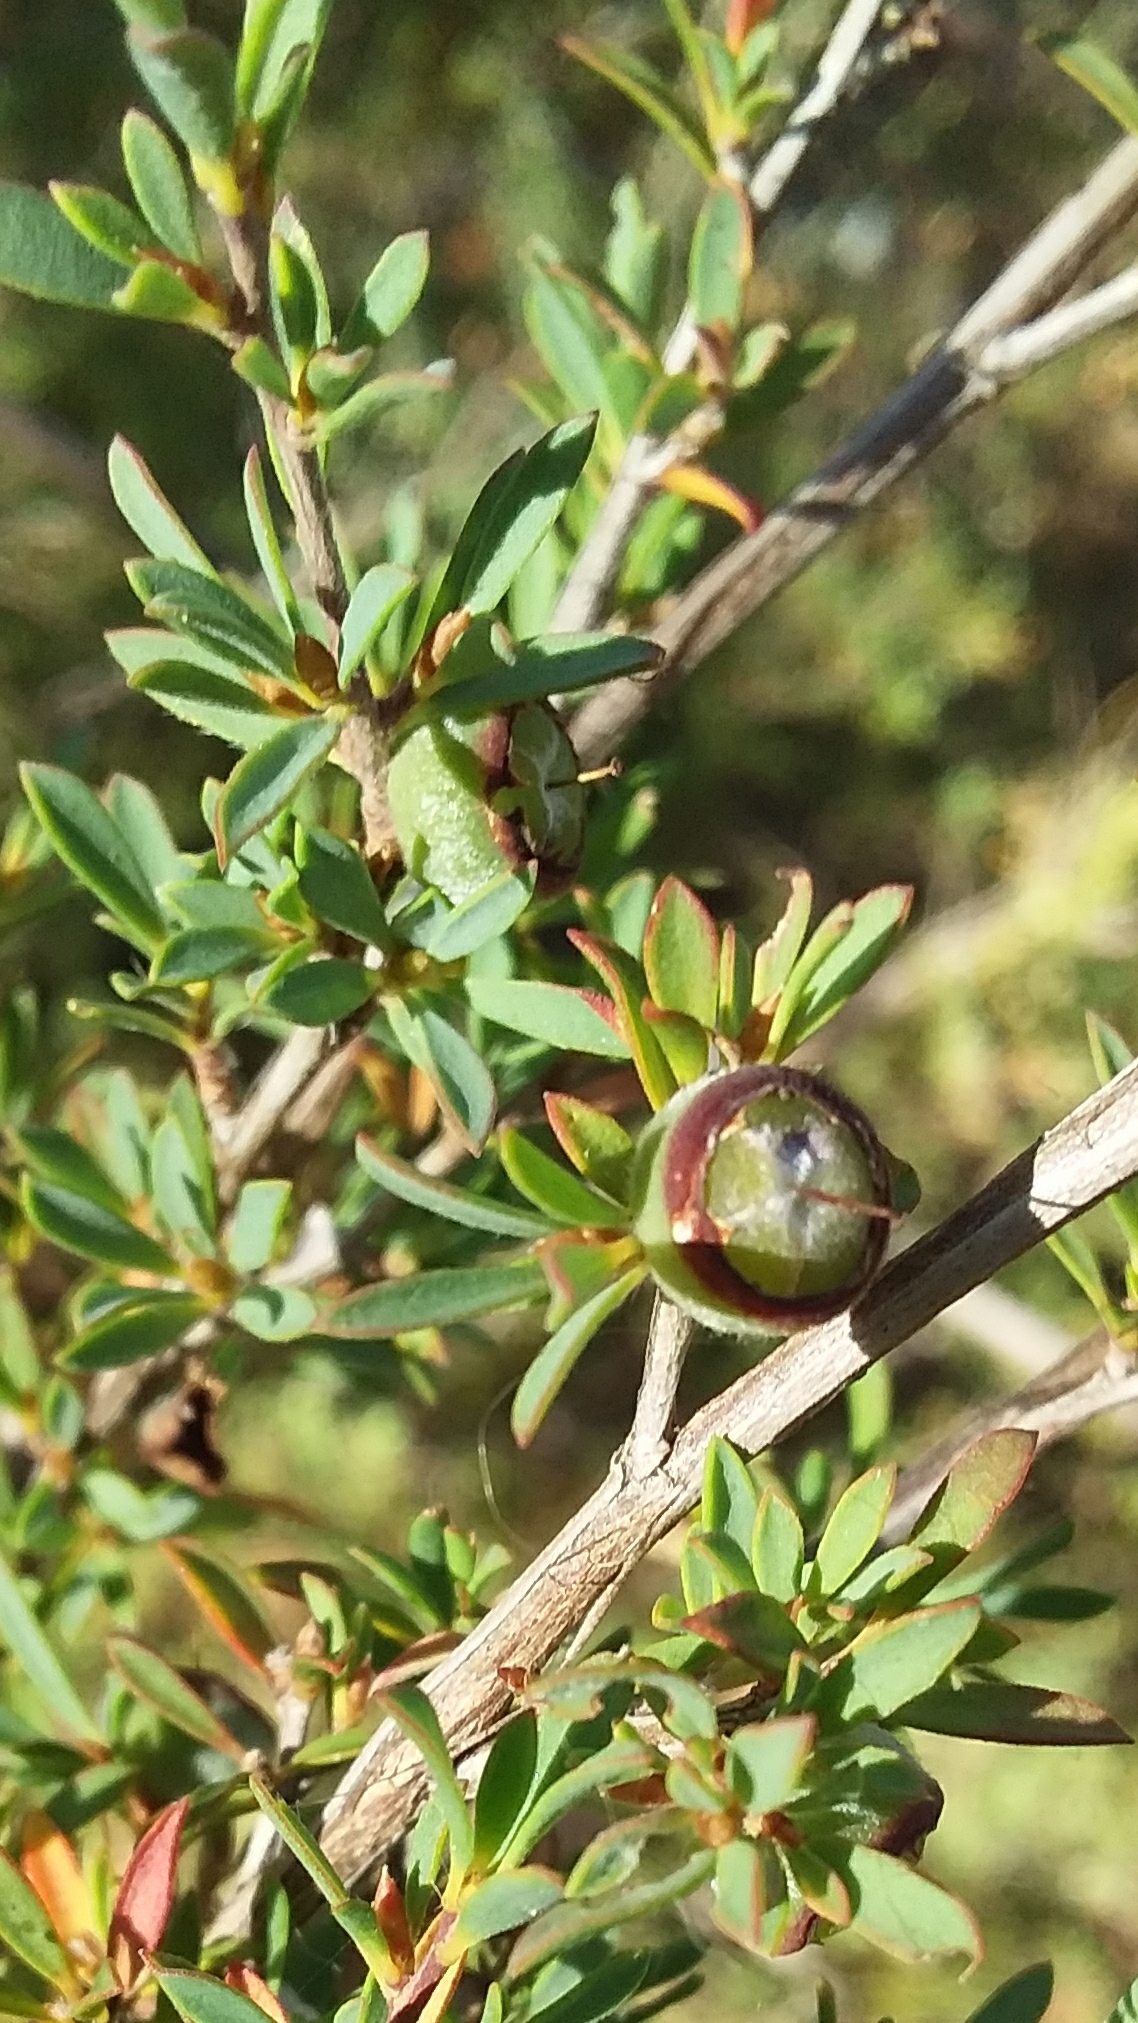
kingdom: Plantae
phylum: Tracheophyta
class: Magnoliopsida
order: Myrtales
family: Myrtaceae
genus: Leptospermum
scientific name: Leptospermum myrsinoides
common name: Heath teatree
